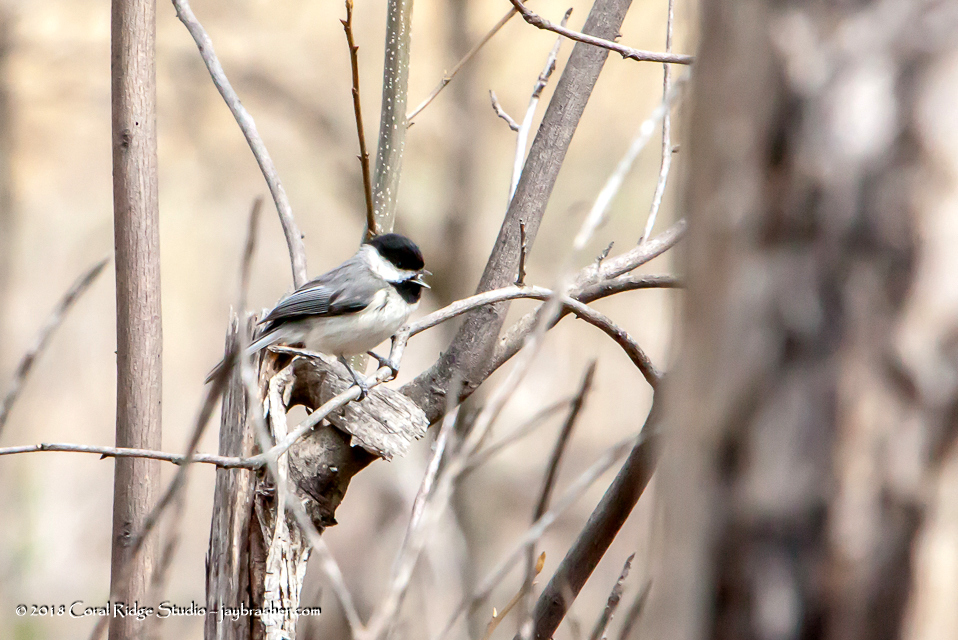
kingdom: Animalia
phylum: Chordata
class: Aves
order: Passeriformes
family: Paridae
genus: Poecile
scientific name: Poecile carolinensis
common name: Carolina chickadee
